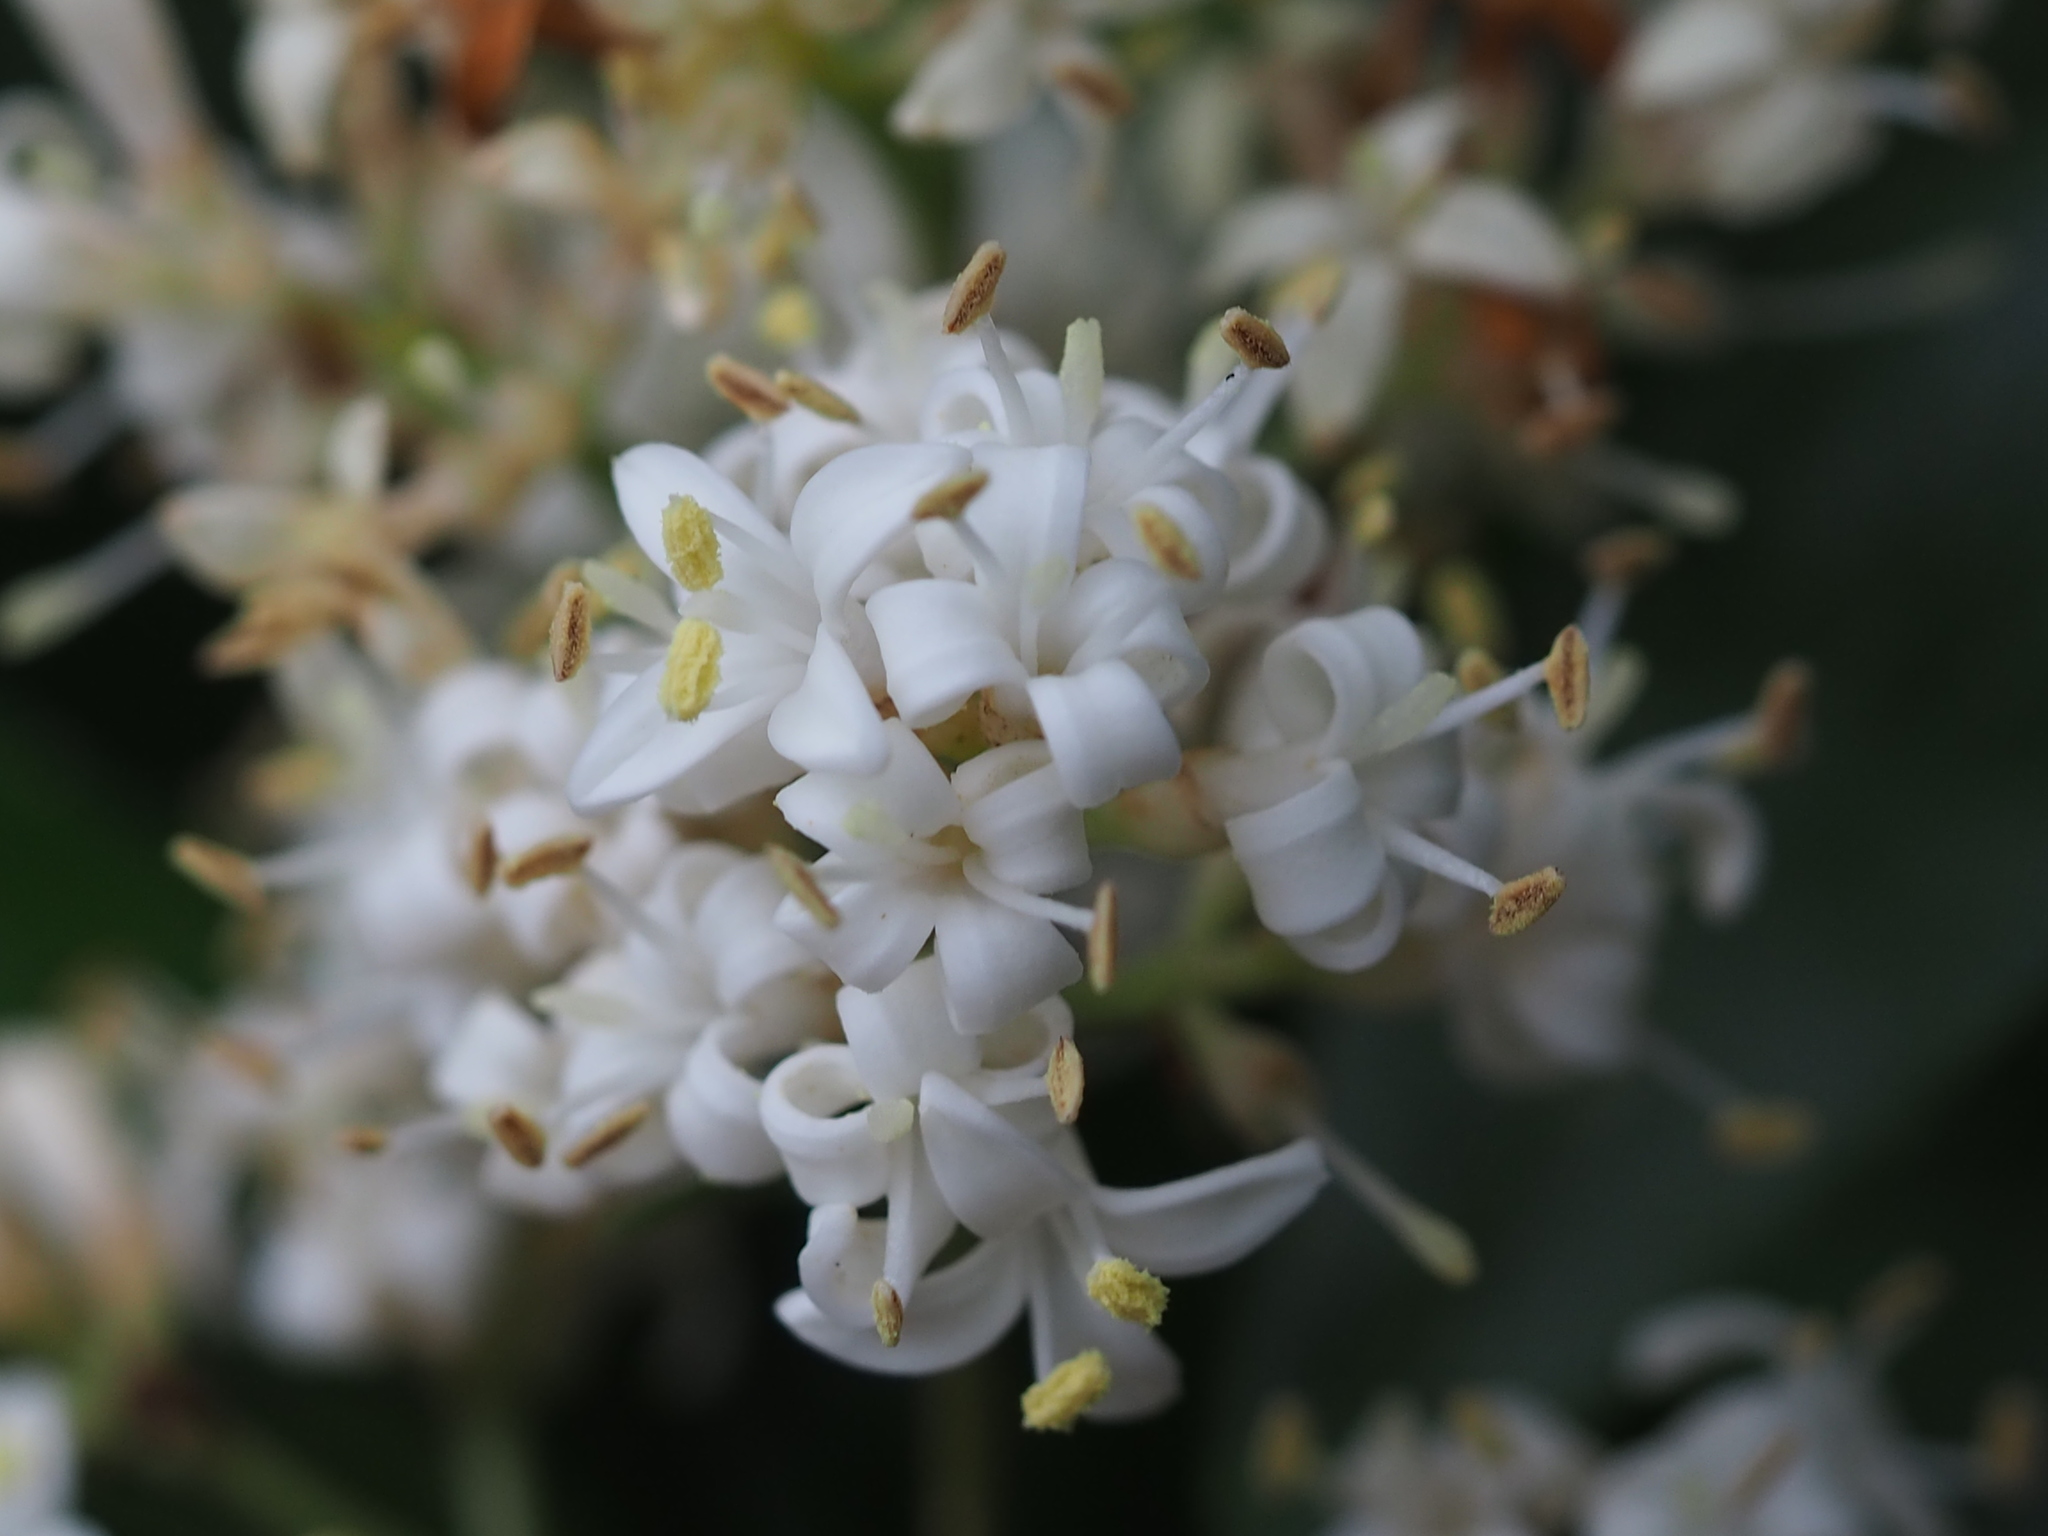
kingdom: Plantae
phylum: Tracheophyta
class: Magnoliopsida
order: Lamiales
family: Oleaceae
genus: Ligustrum
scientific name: Ligustrum japonicum
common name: Japanese privet
